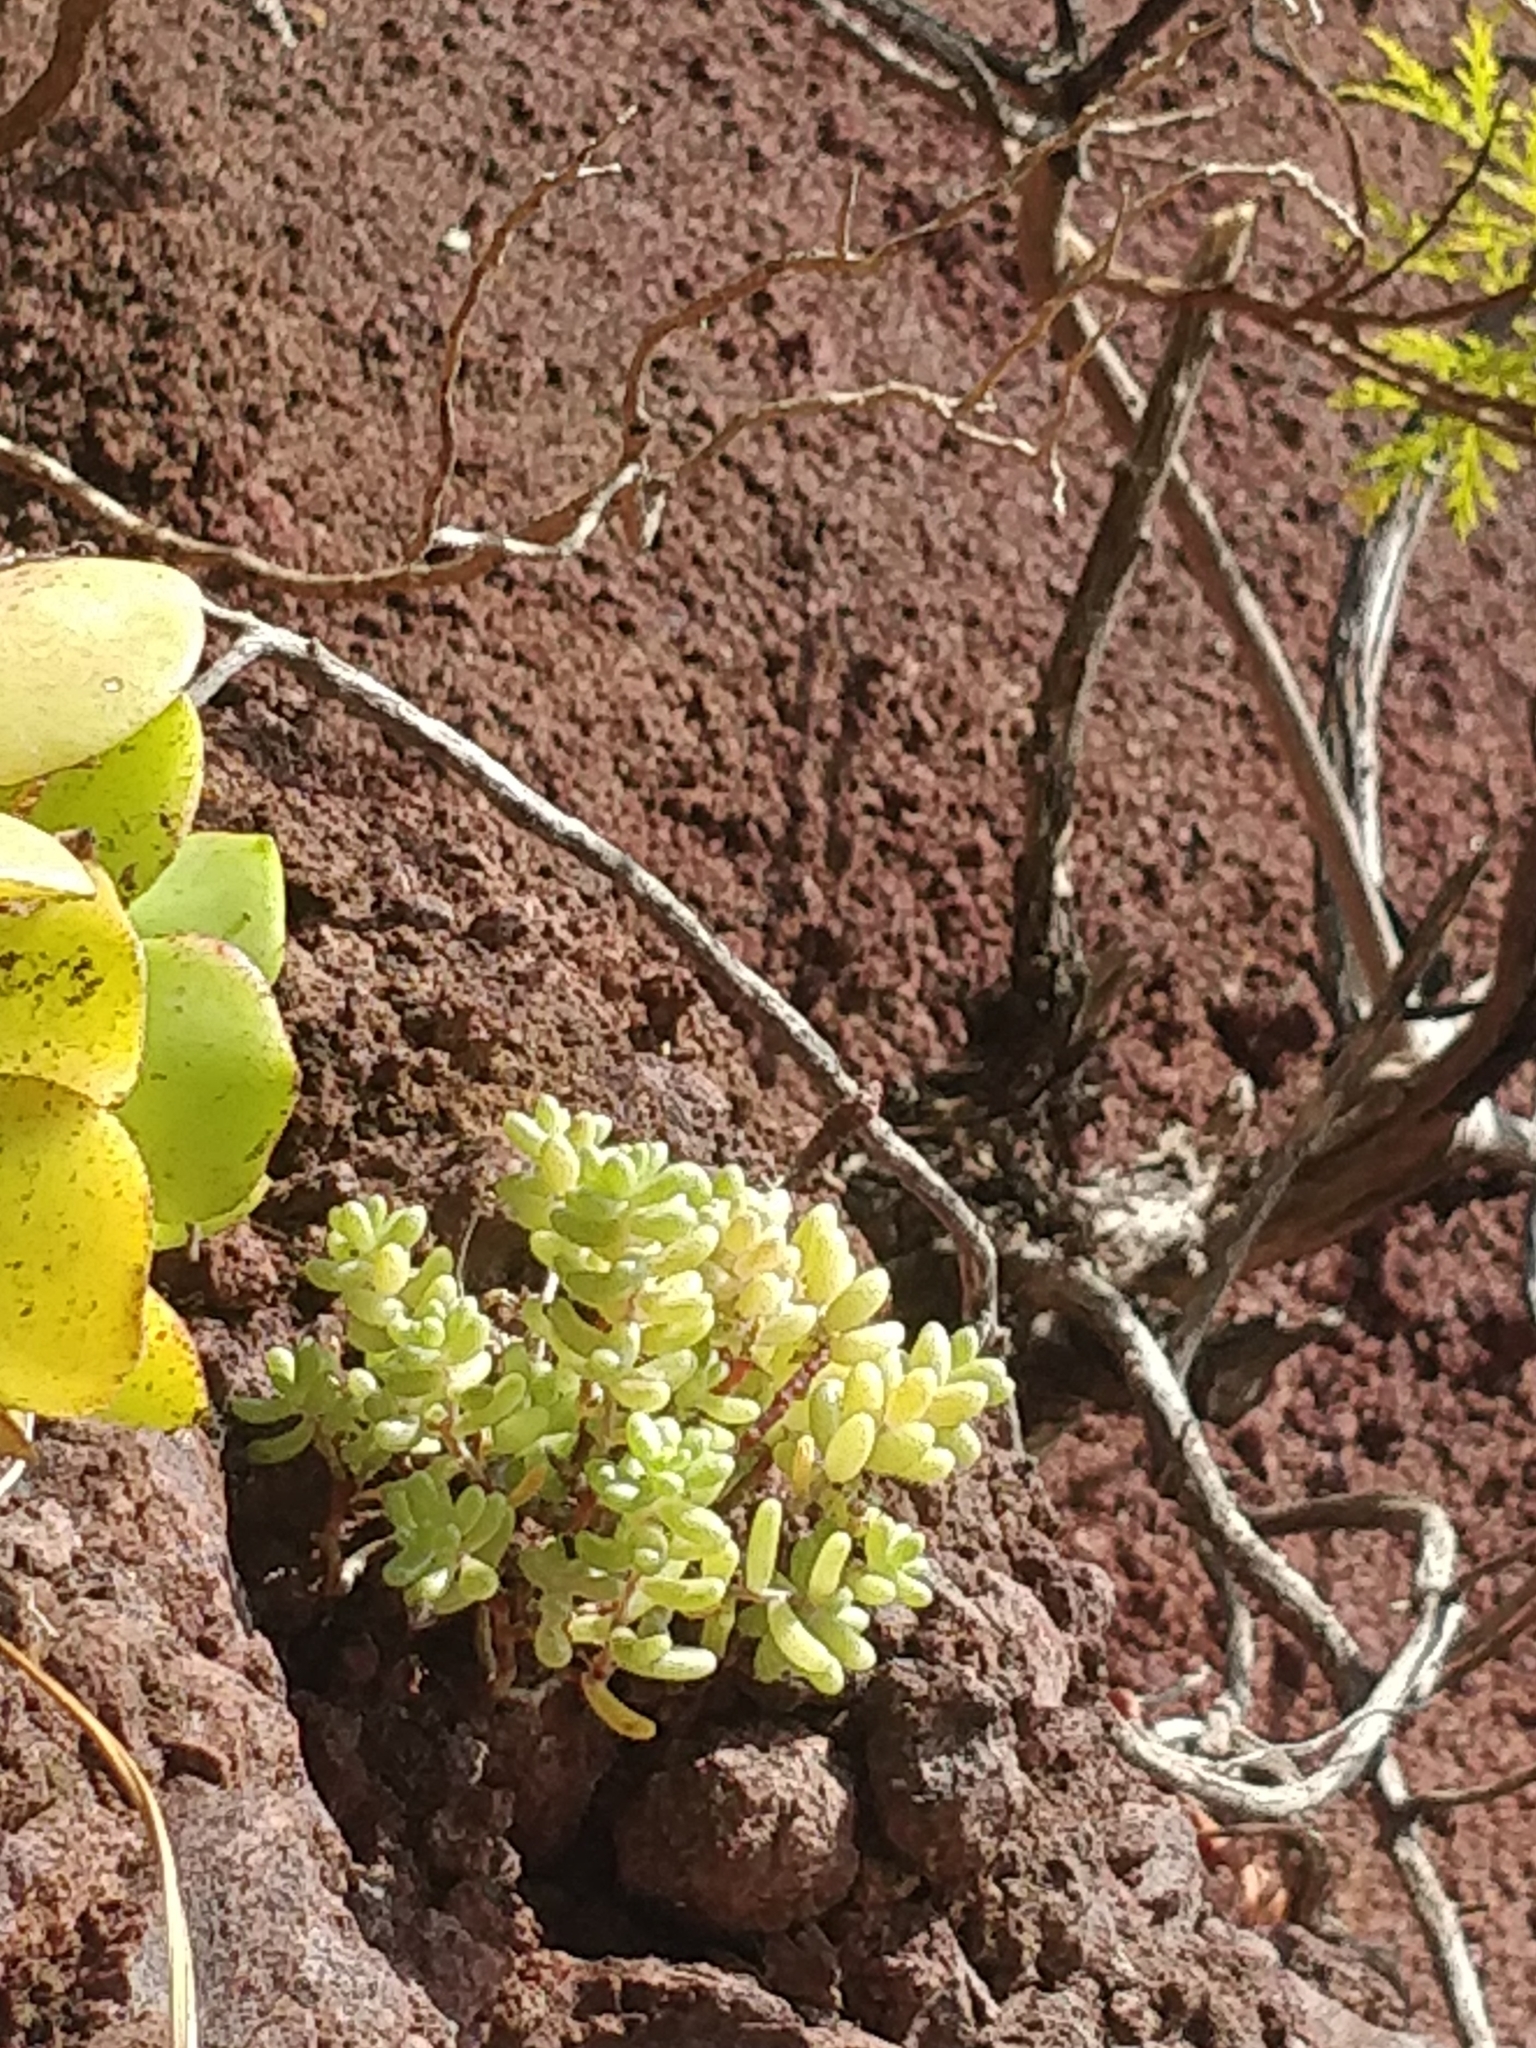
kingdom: Plantae
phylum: Tracheophyta
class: Magnoliopsida
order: Saxifragales
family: Crassulaceae
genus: Sedum
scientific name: Sedum nudum
